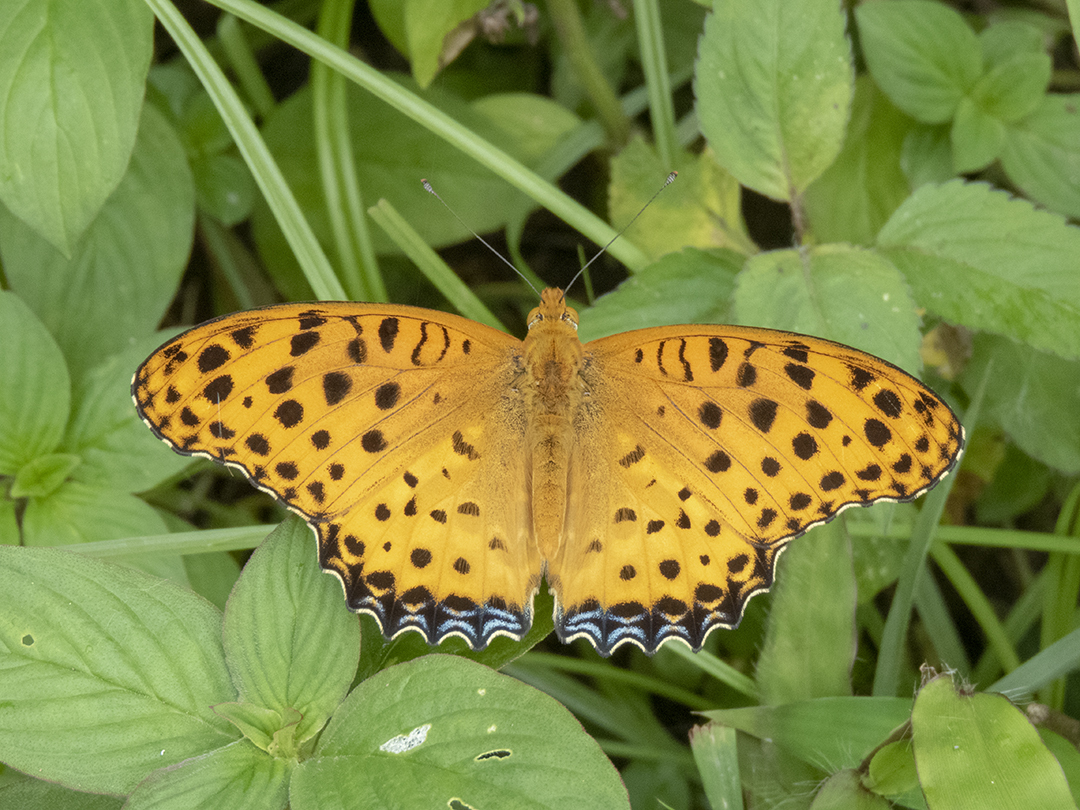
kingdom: Animalia
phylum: Arthropoda
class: Insecta
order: Lepidoptera
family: Nymphalidae
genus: Argynnis
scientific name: Argynnis hyperbius
